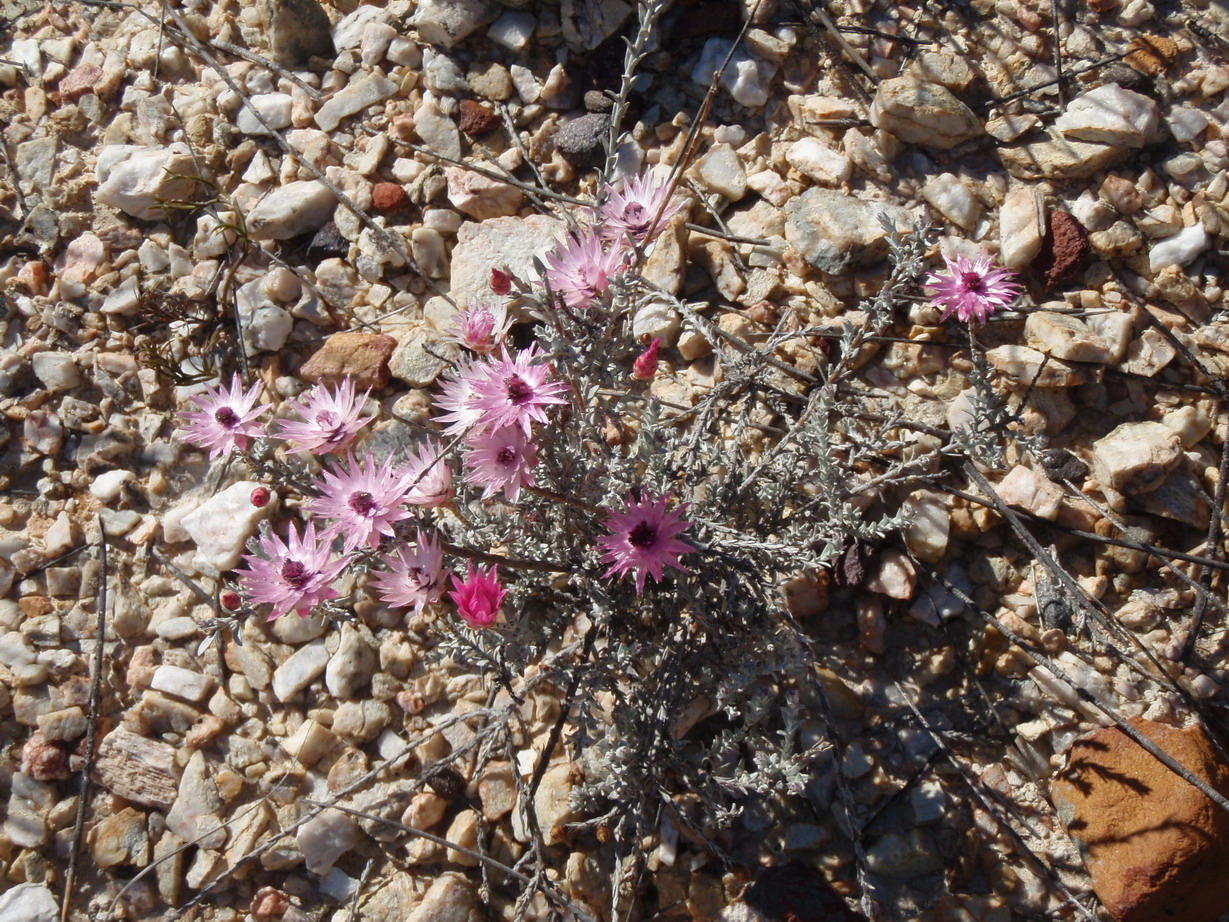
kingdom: Plantae
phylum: Tracheophyta
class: Magnoliopsida
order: Asterales
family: Asteraceae
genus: Syncarpha
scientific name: Syncarpha canescens
